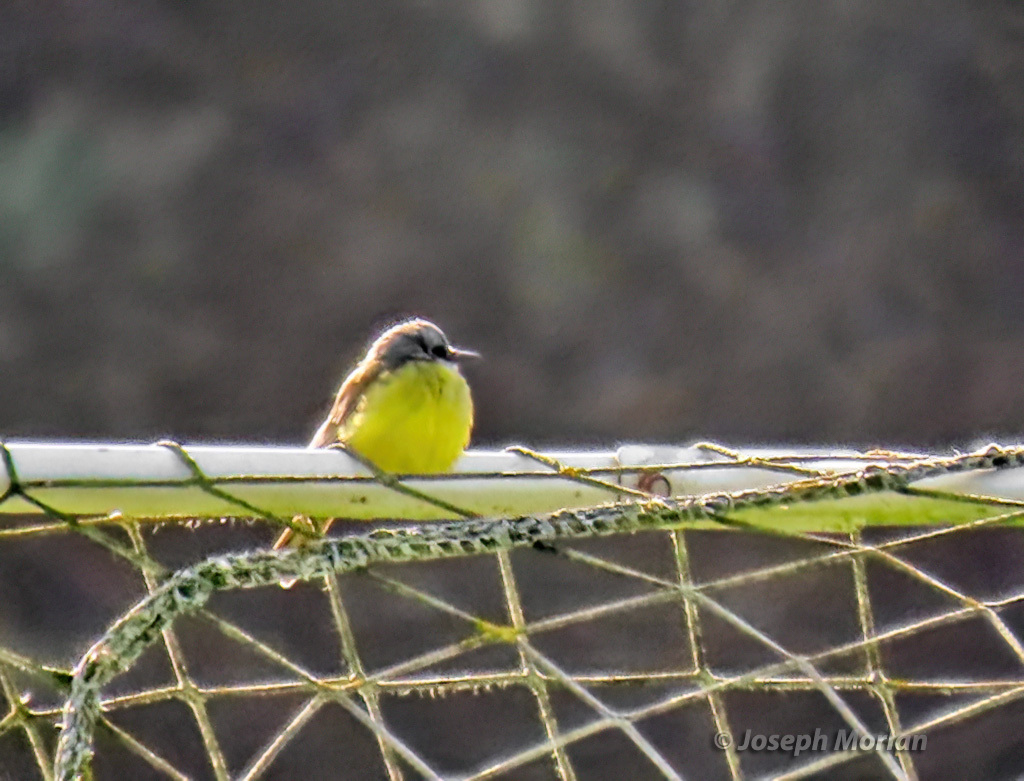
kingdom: Animalia
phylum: Chordata
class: Aves
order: Passeriformes
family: Tyrannidae
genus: Tyrannus
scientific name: Tyrannus melancholicus
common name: Tropical kingbird
